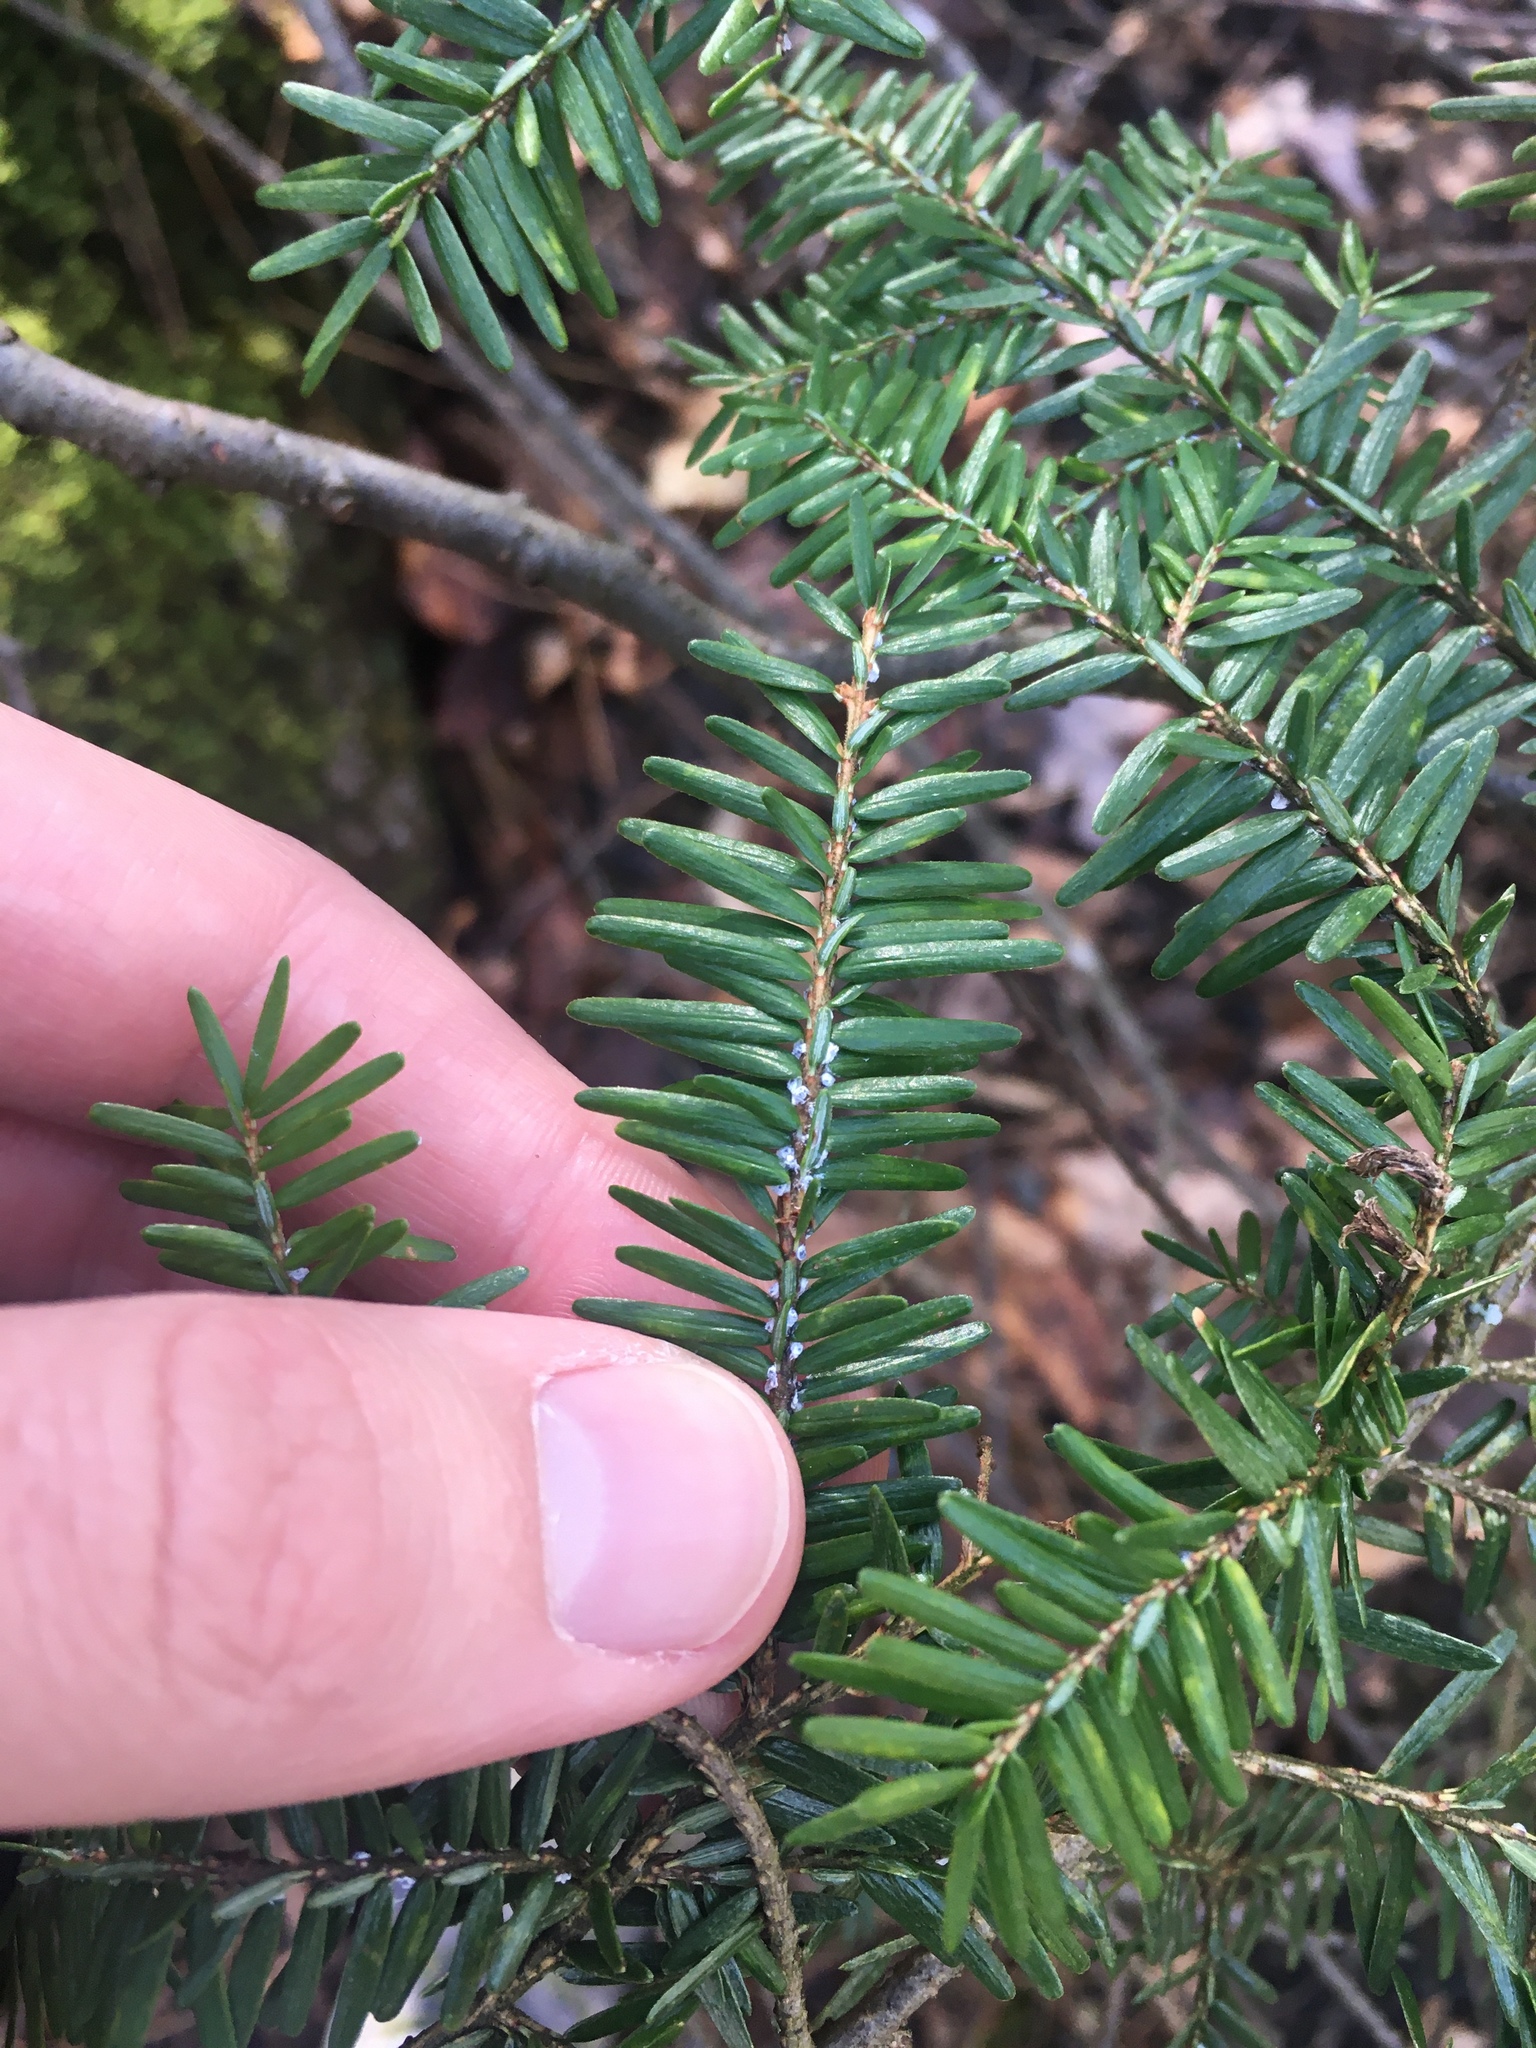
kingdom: Animalia
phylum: Arthropoda
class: Insecta
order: Hemiptera
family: Adelgidae
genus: Adelges
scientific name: Adelges tsugae
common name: Hemlock woolly adelgid
